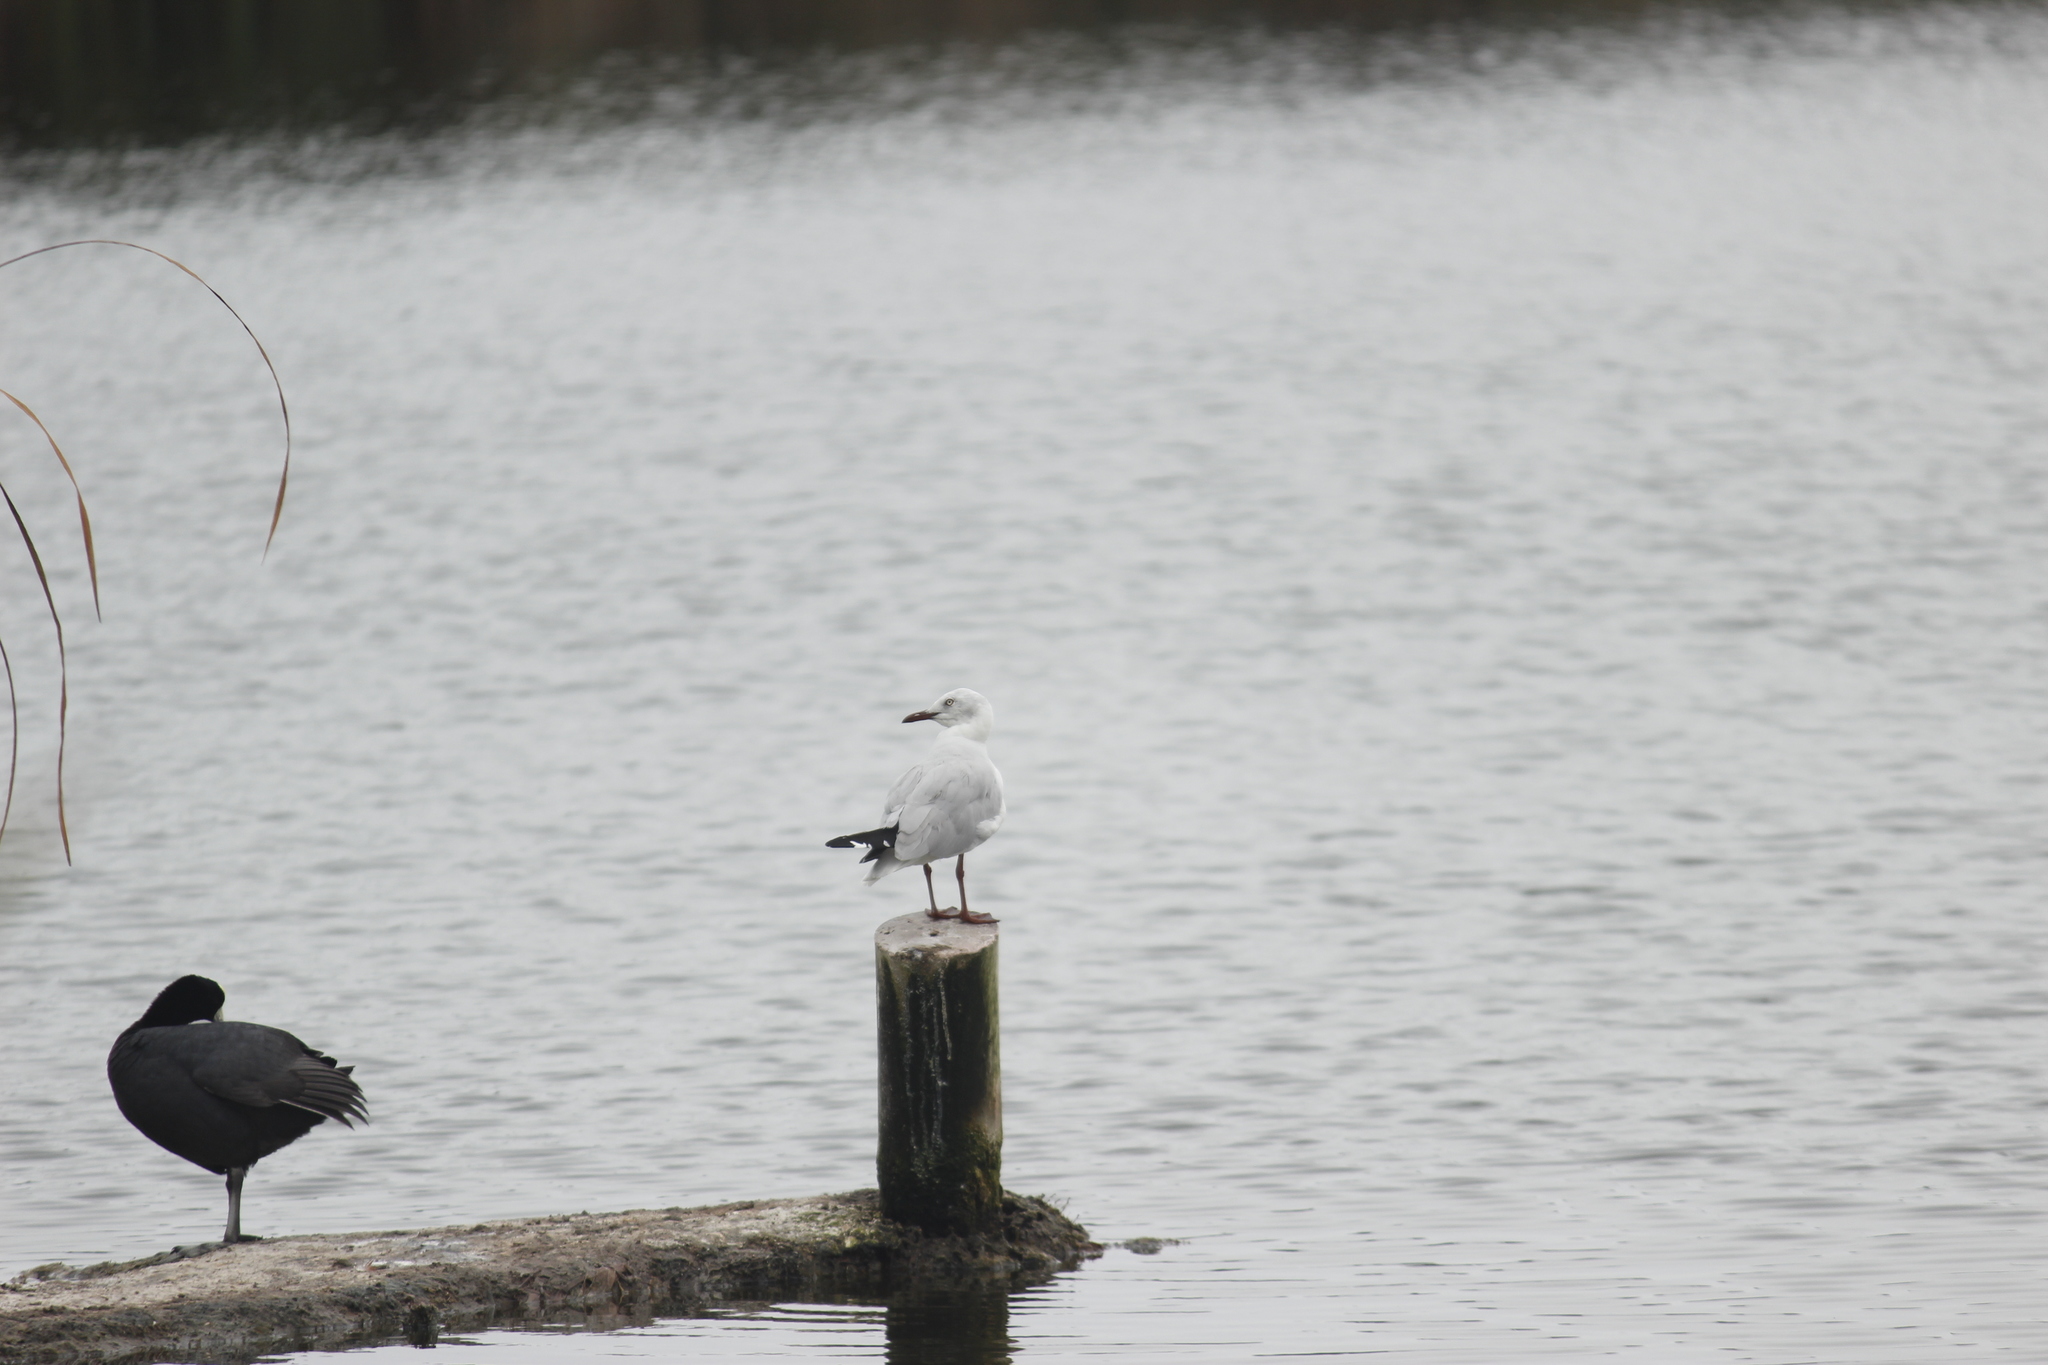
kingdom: Animalia
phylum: Chordata
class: Aves
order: Charadriiformes
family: Laridae
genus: Chroicocephalus
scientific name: Chroicocephalus cirrocephalus
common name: Grey-headed gull
